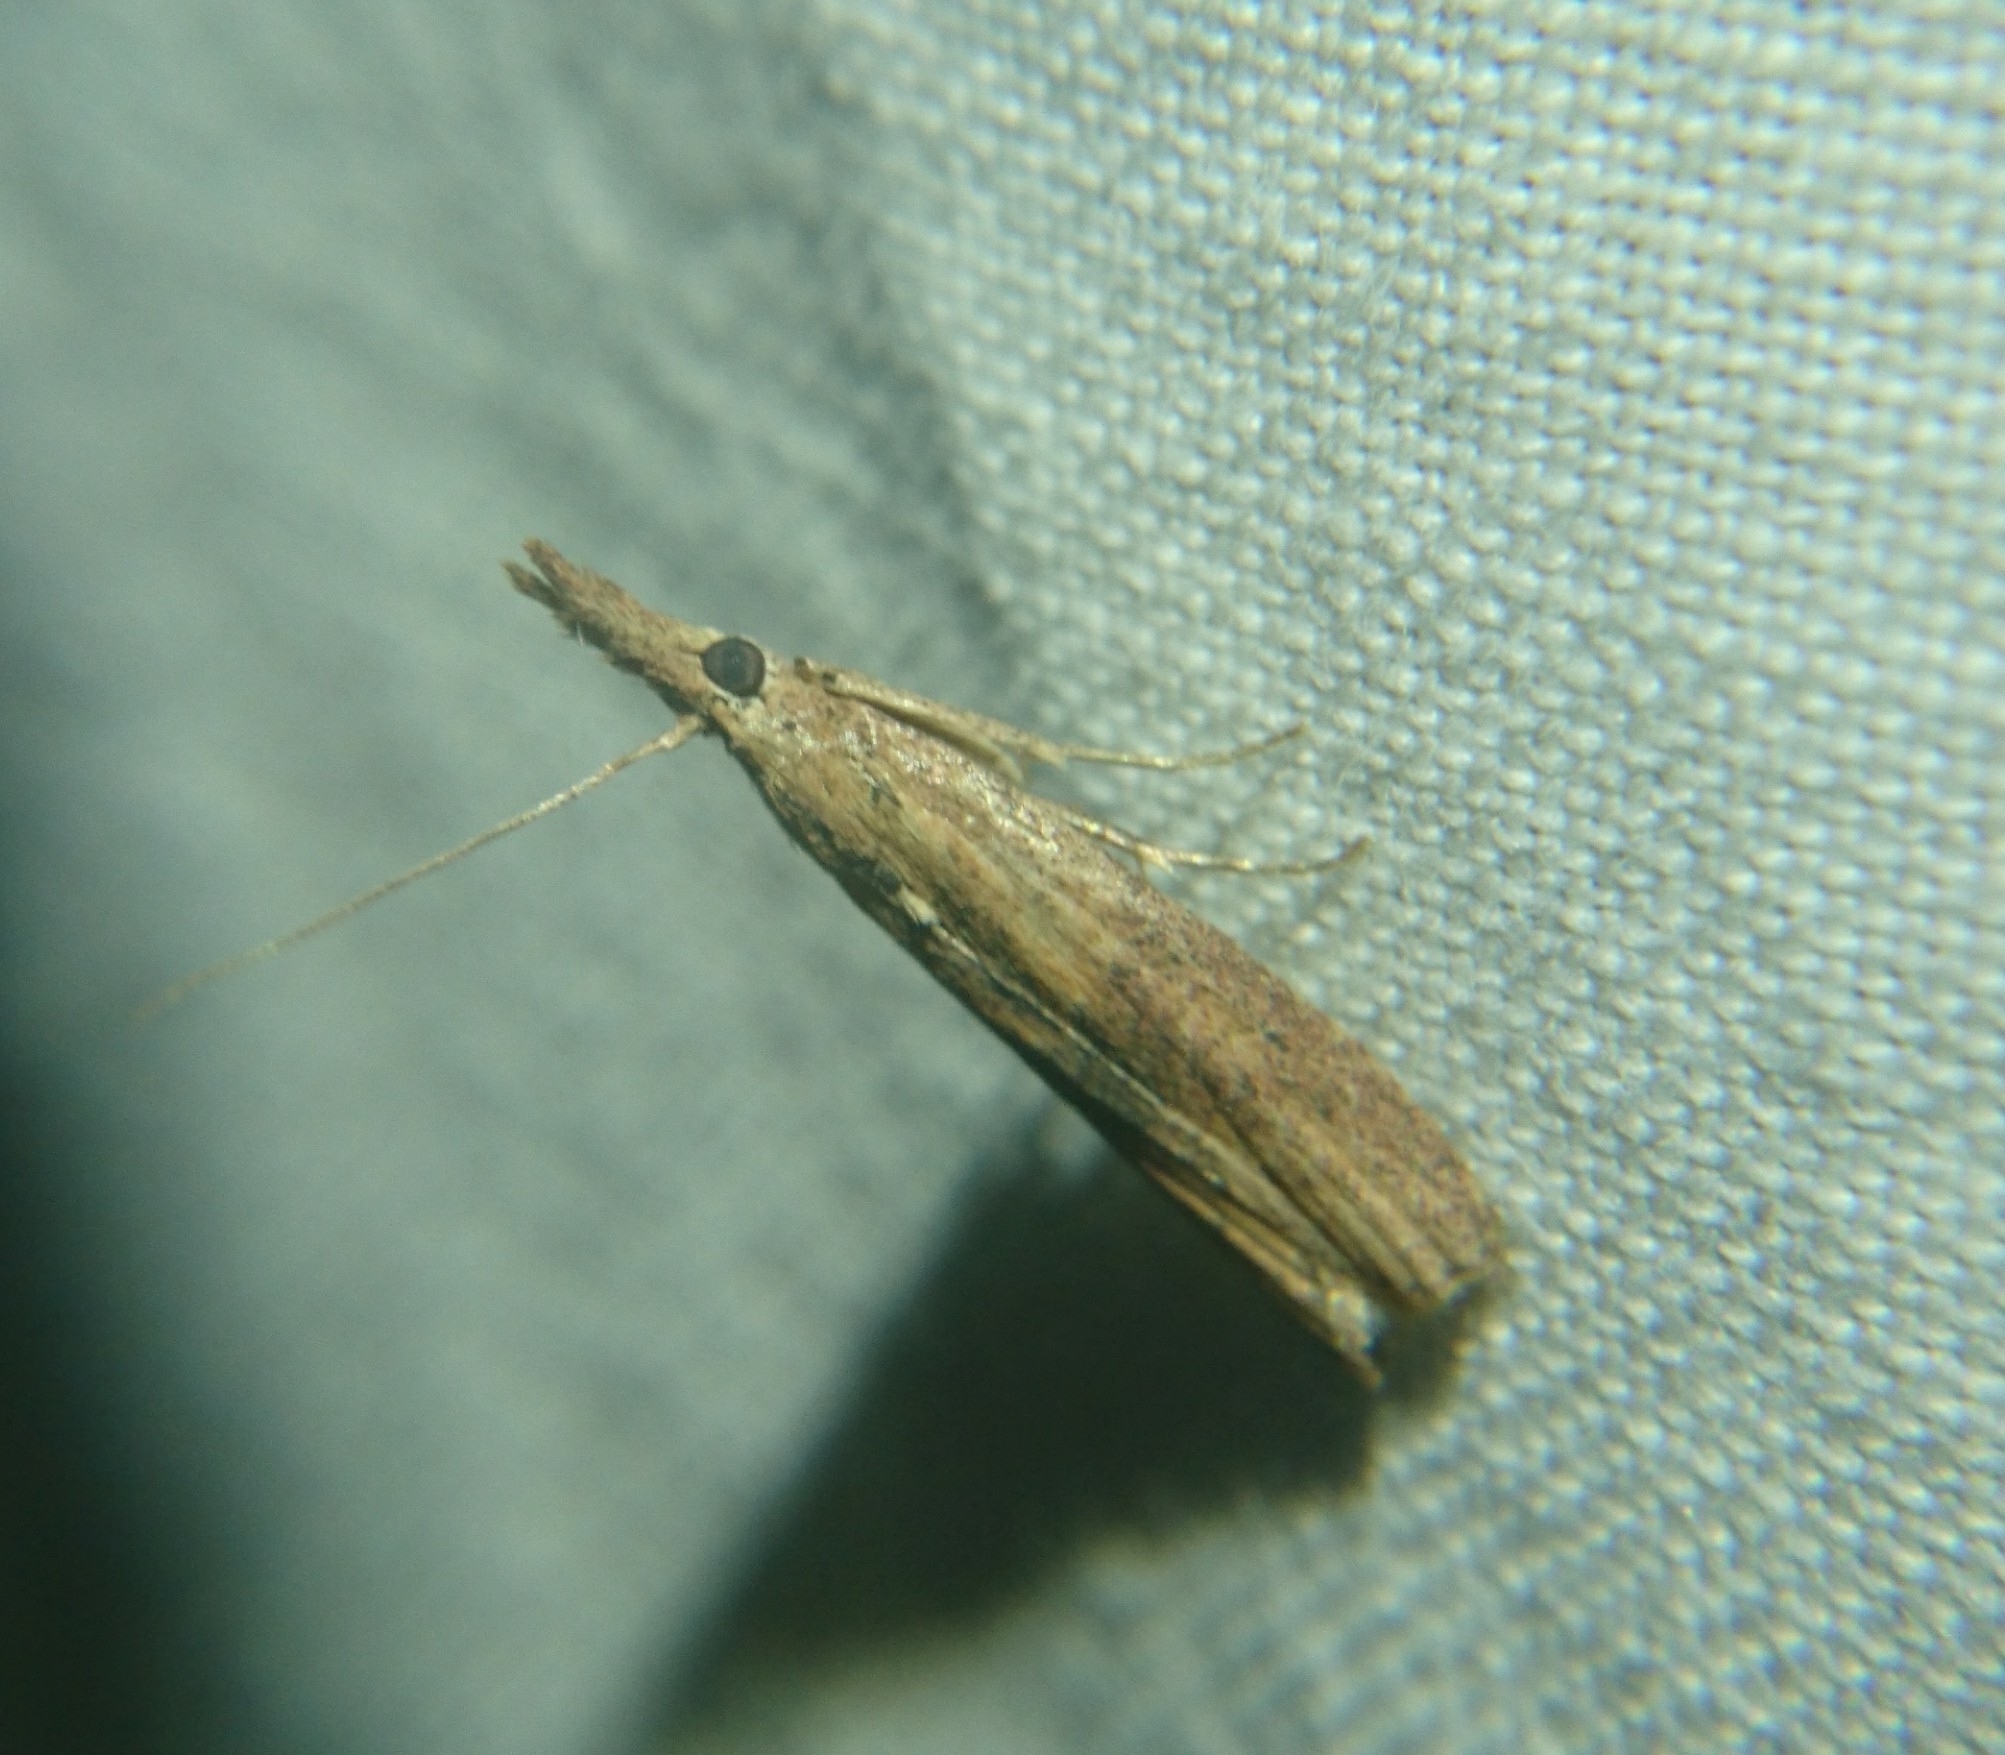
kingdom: Animalia
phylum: Arthropoda
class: Insecta
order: Lepidoptera
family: Pyralidae
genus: Macrorrhinia
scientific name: Macrorrhinia endonephele
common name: Alligator weed stemborer moth
